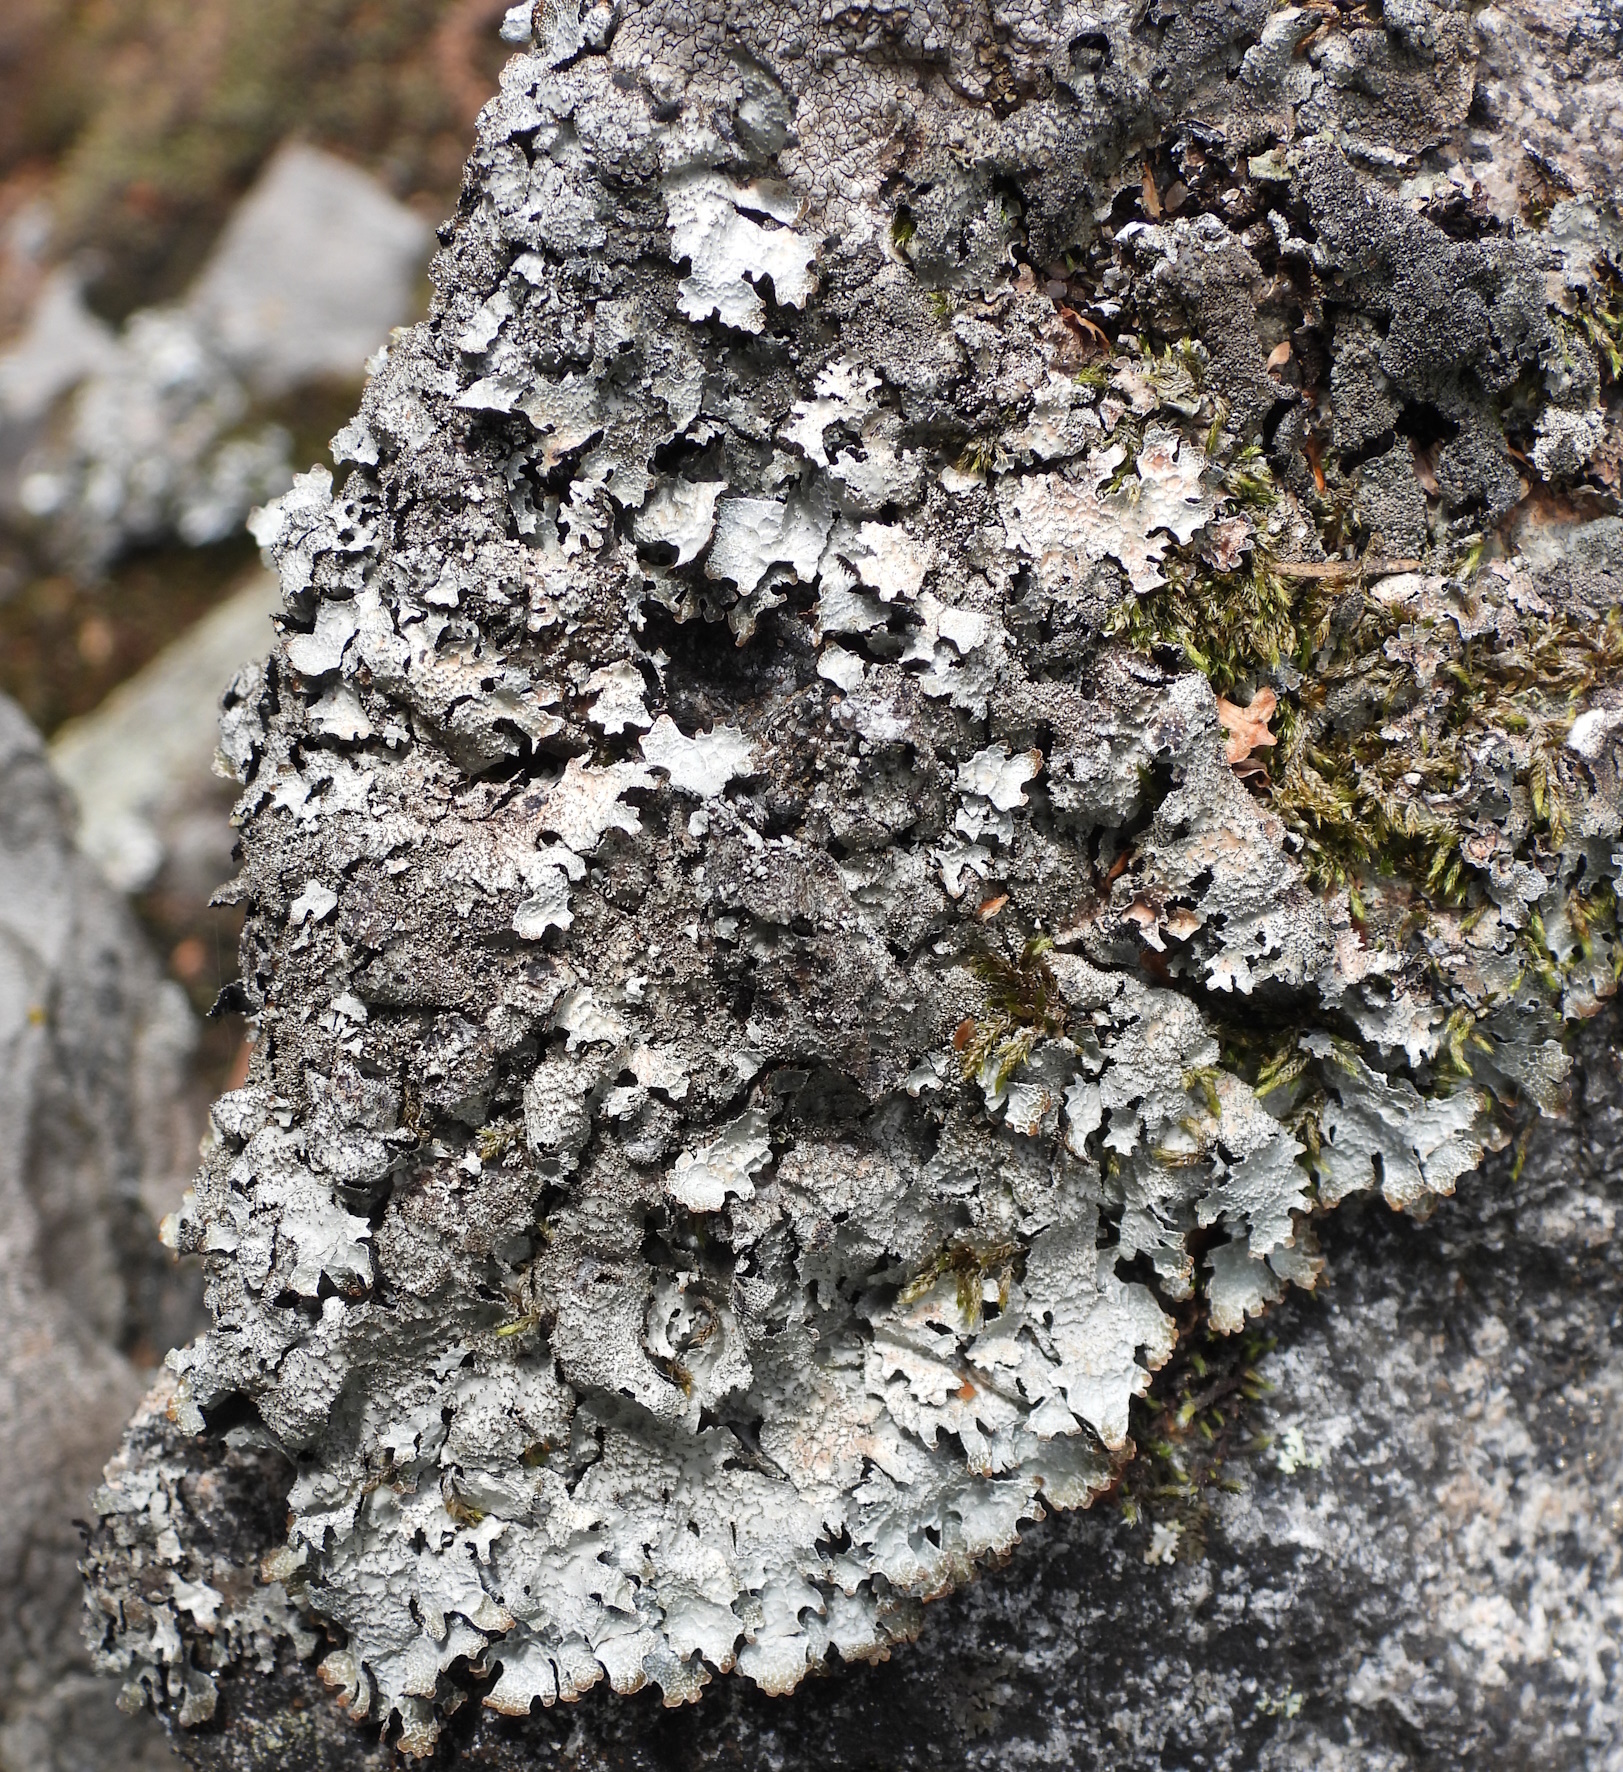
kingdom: Fungi
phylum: Ascomycota
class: Lecanoromycetes
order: Lecanorales
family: Parmeliaceae
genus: Parmelia
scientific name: Parmelia saxatilis
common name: Salted shield lichen
